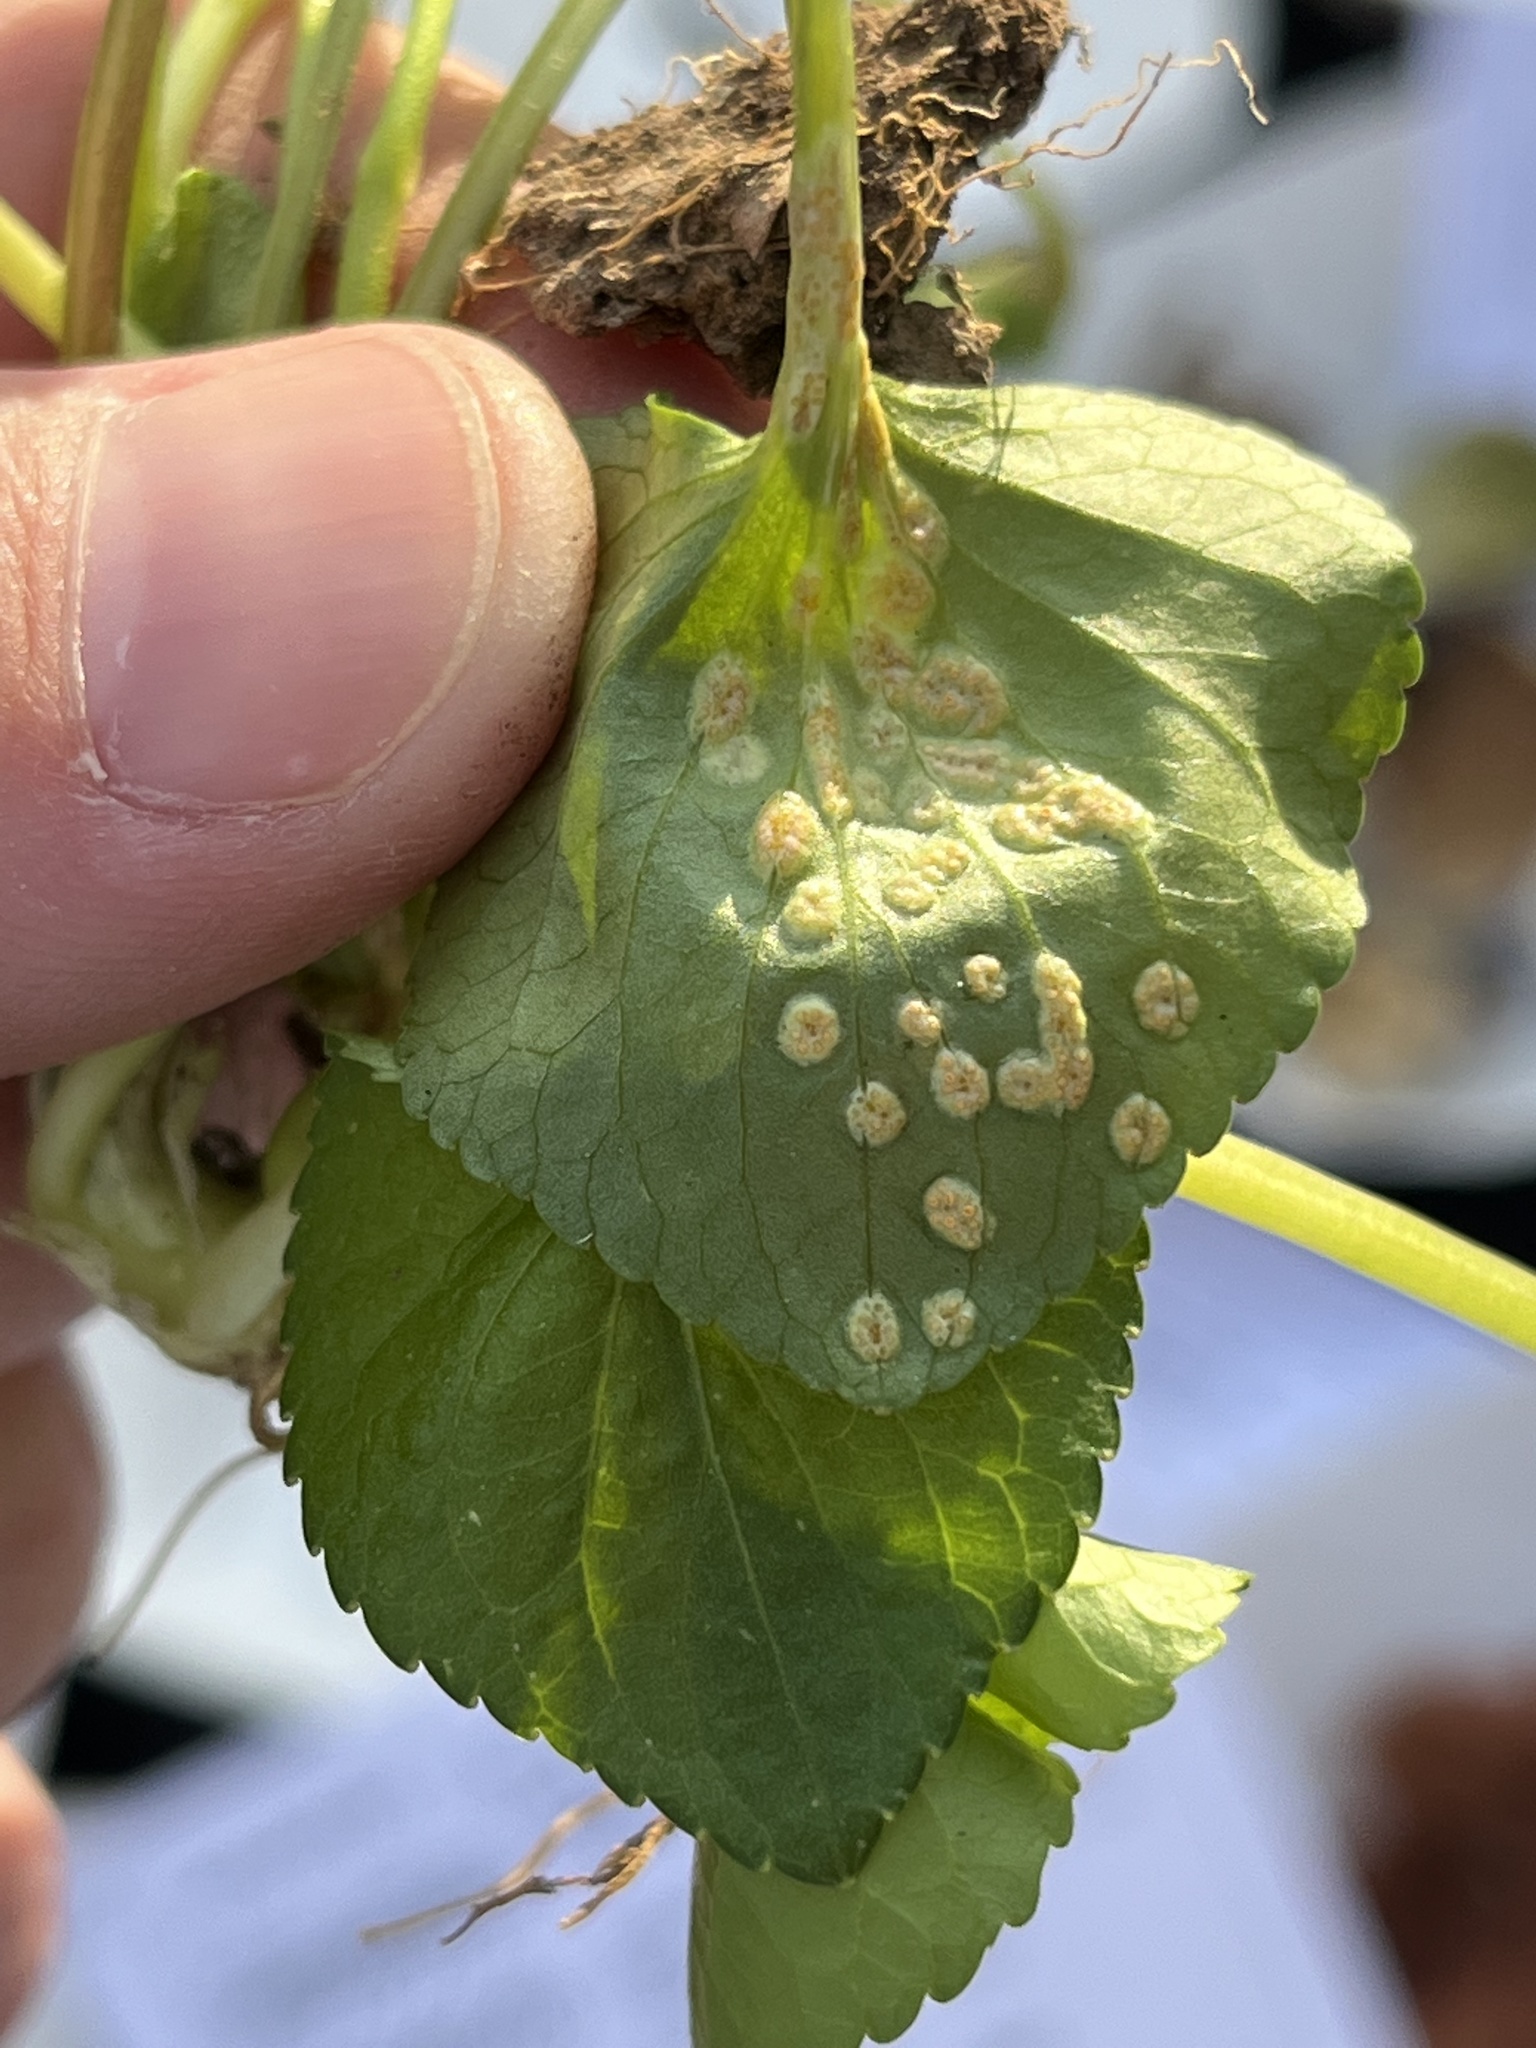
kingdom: Fungi
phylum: Basidiomycota
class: Pucciniomycetes
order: Pucciniales
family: Pucciniaceae
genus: Puccinia
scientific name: Puccinia violae
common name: Violet rust
